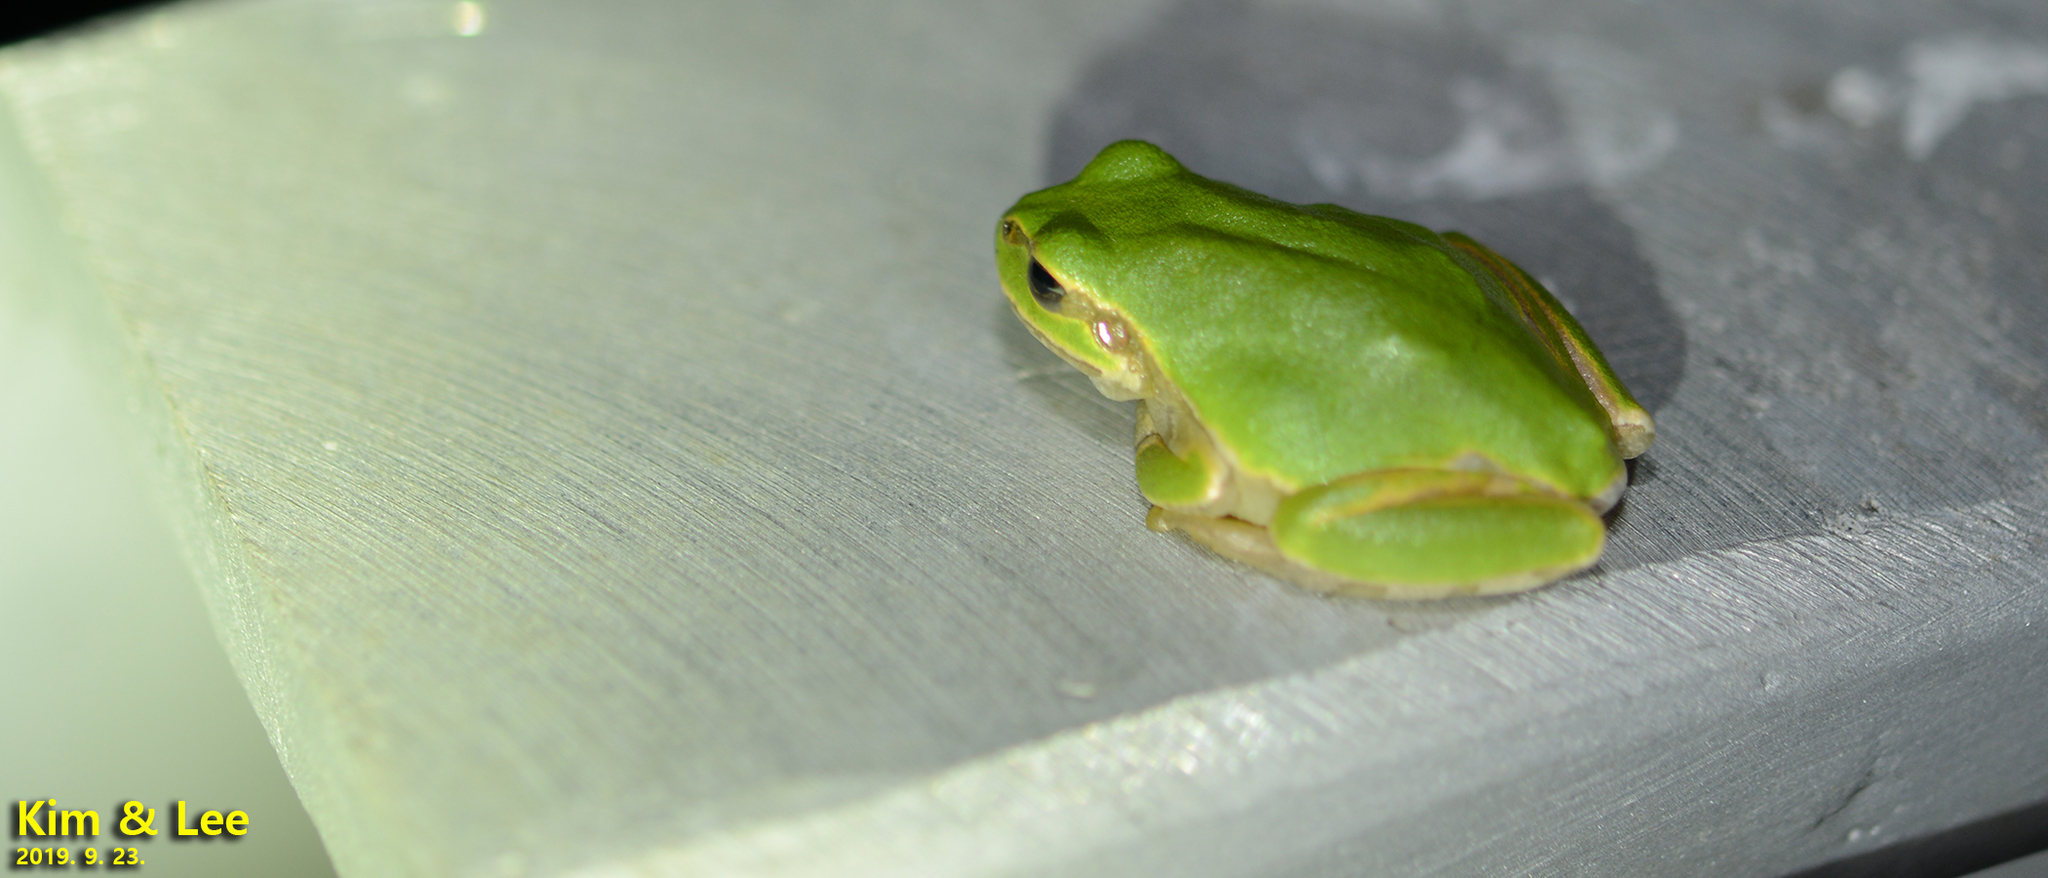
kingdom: Animalia
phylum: Chordata
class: Amphibia
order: Anura
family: Hylidae
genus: Dryophytes
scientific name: Dryophytes japonicus
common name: Japanese treefrog
